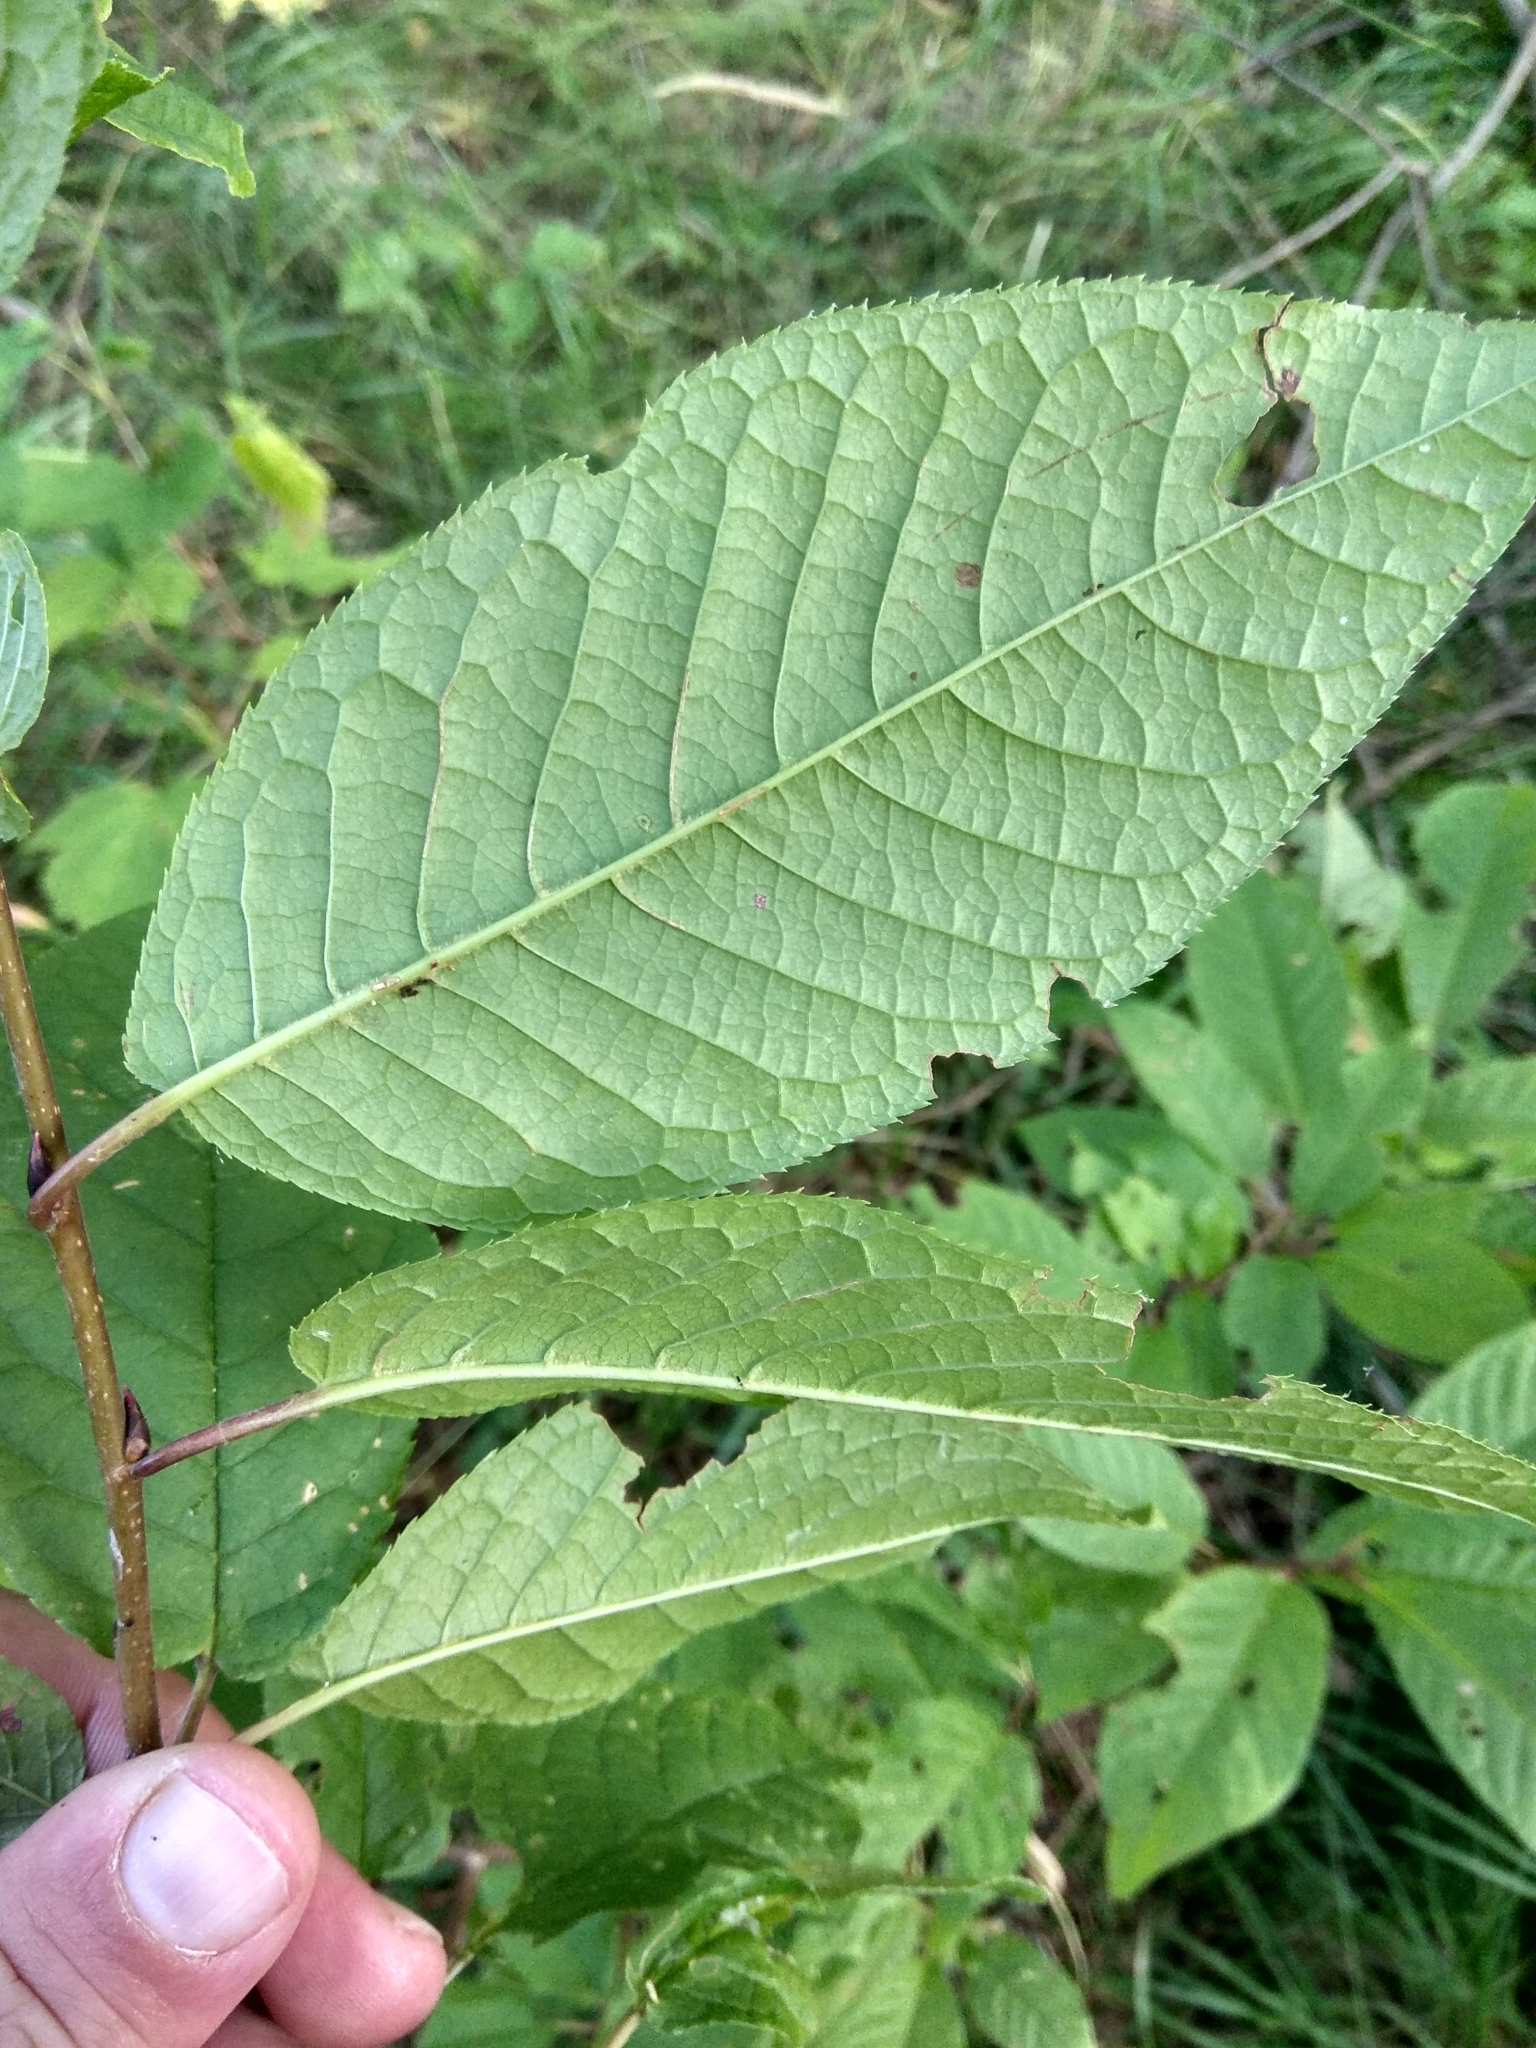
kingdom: Plantae
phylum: Tracheophyta
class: Magnoliopsida
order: Rosales
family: Rosaceae
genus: Prunus
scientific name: Prunus padus
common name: Bird cherry
